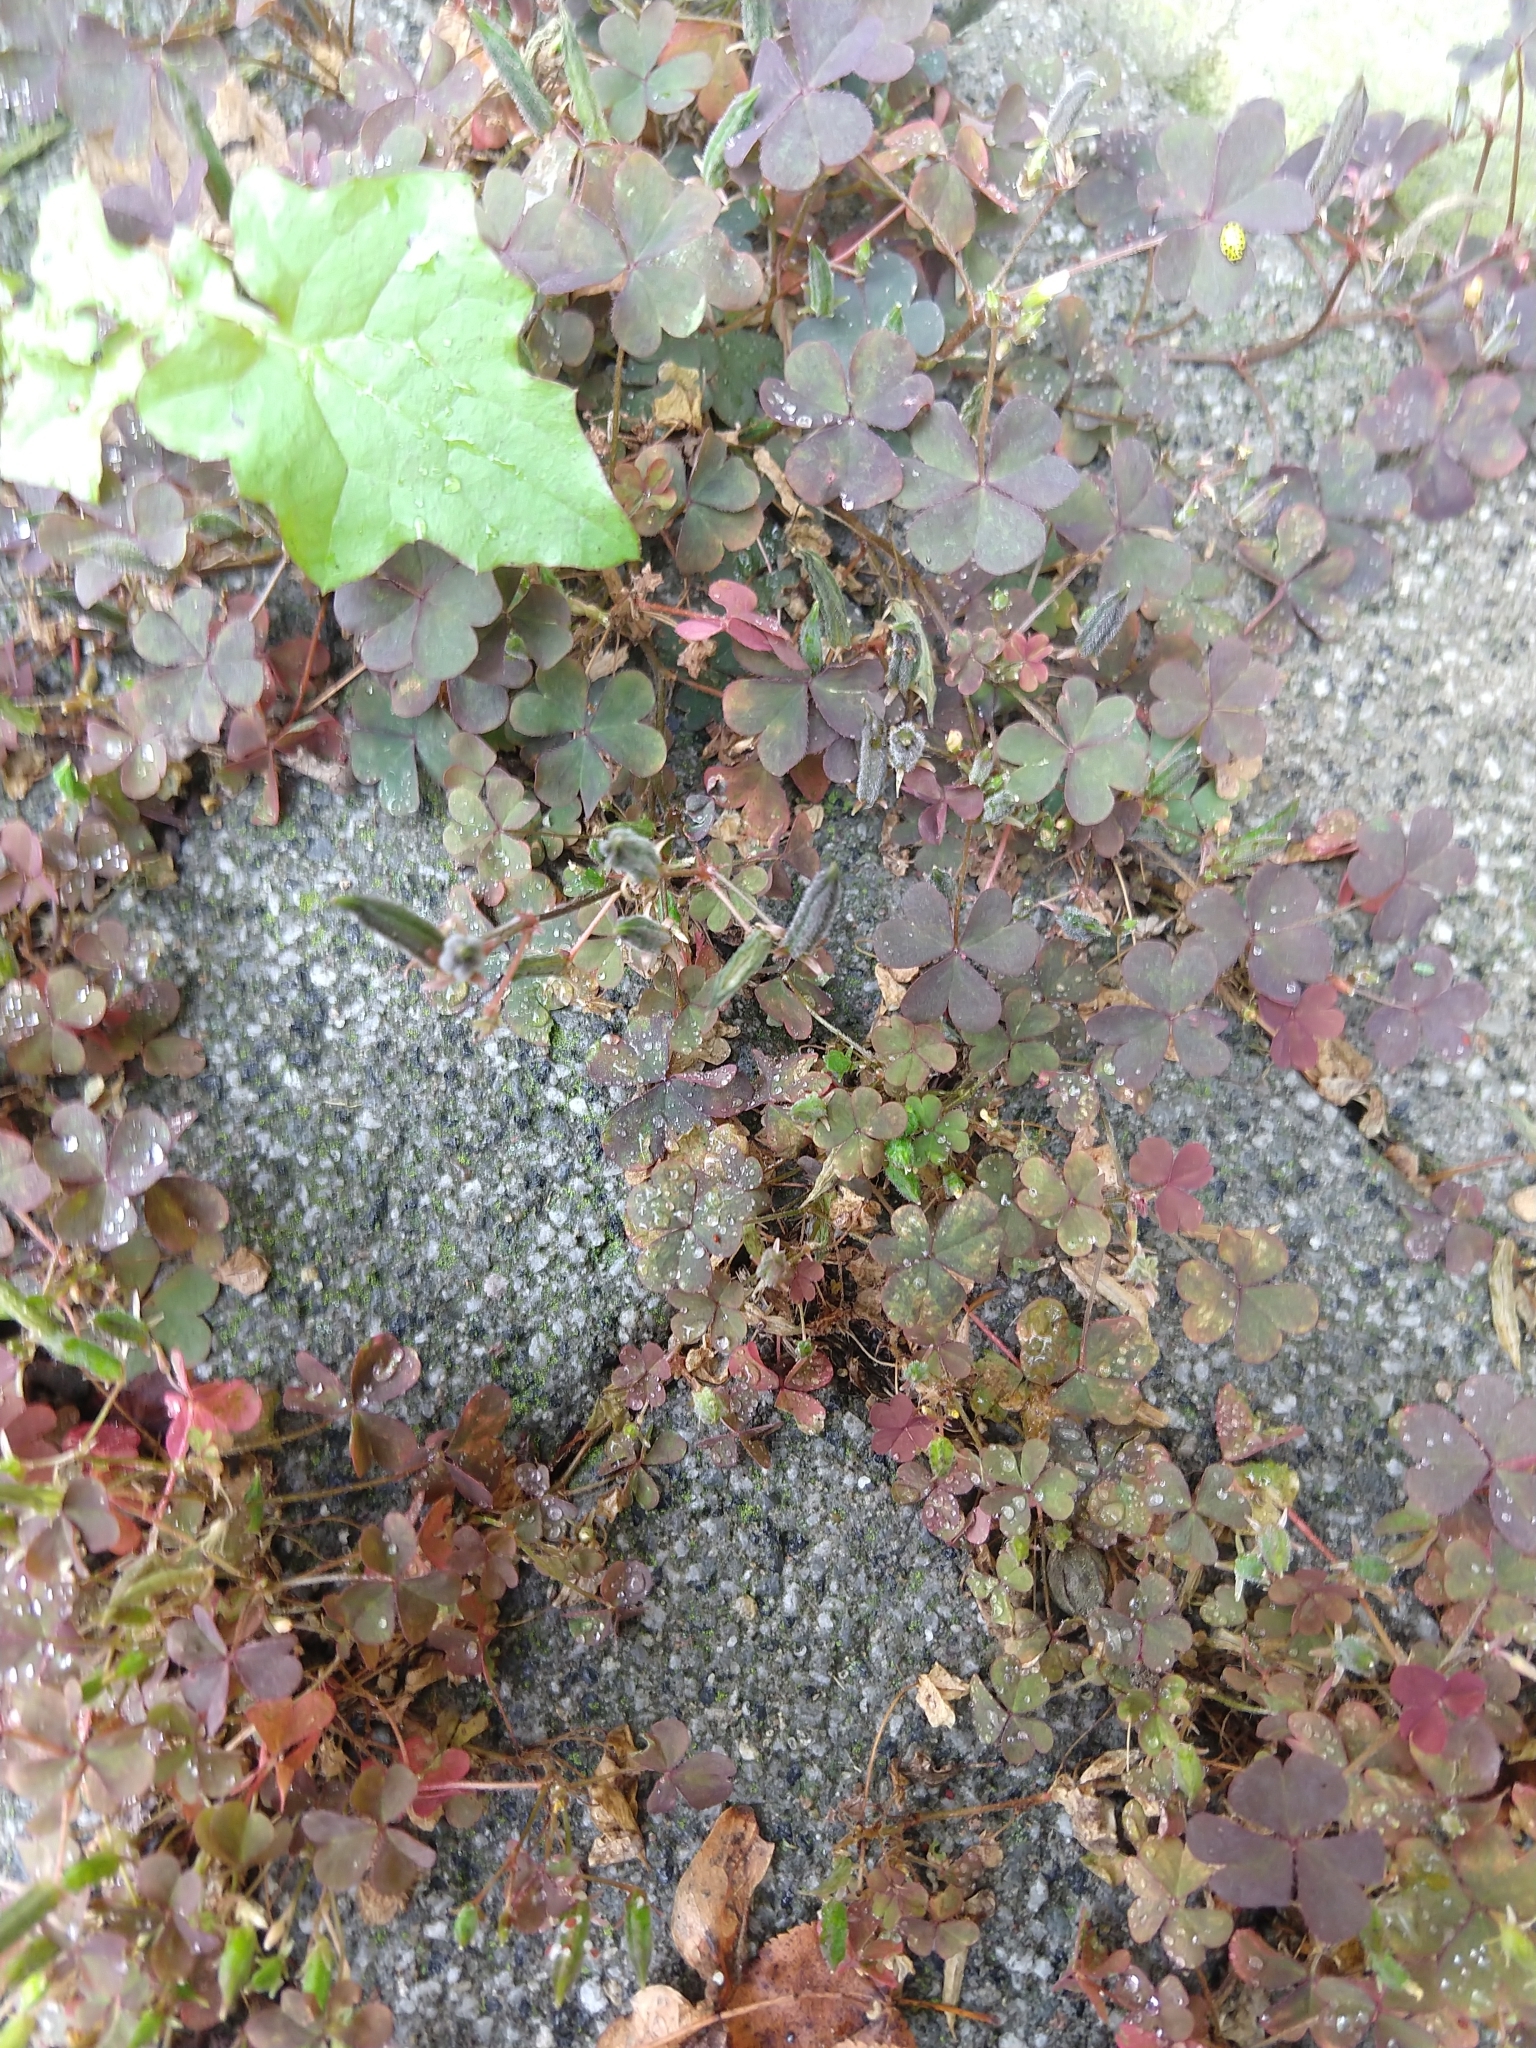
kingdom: Plantae
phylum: Tracheophyta
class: Magnoliopsida
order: Oxalidales
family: Oxalidaceae
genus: Oxalis
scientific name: Oxalis corniculata
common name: Procumbent yellow-sorrel
